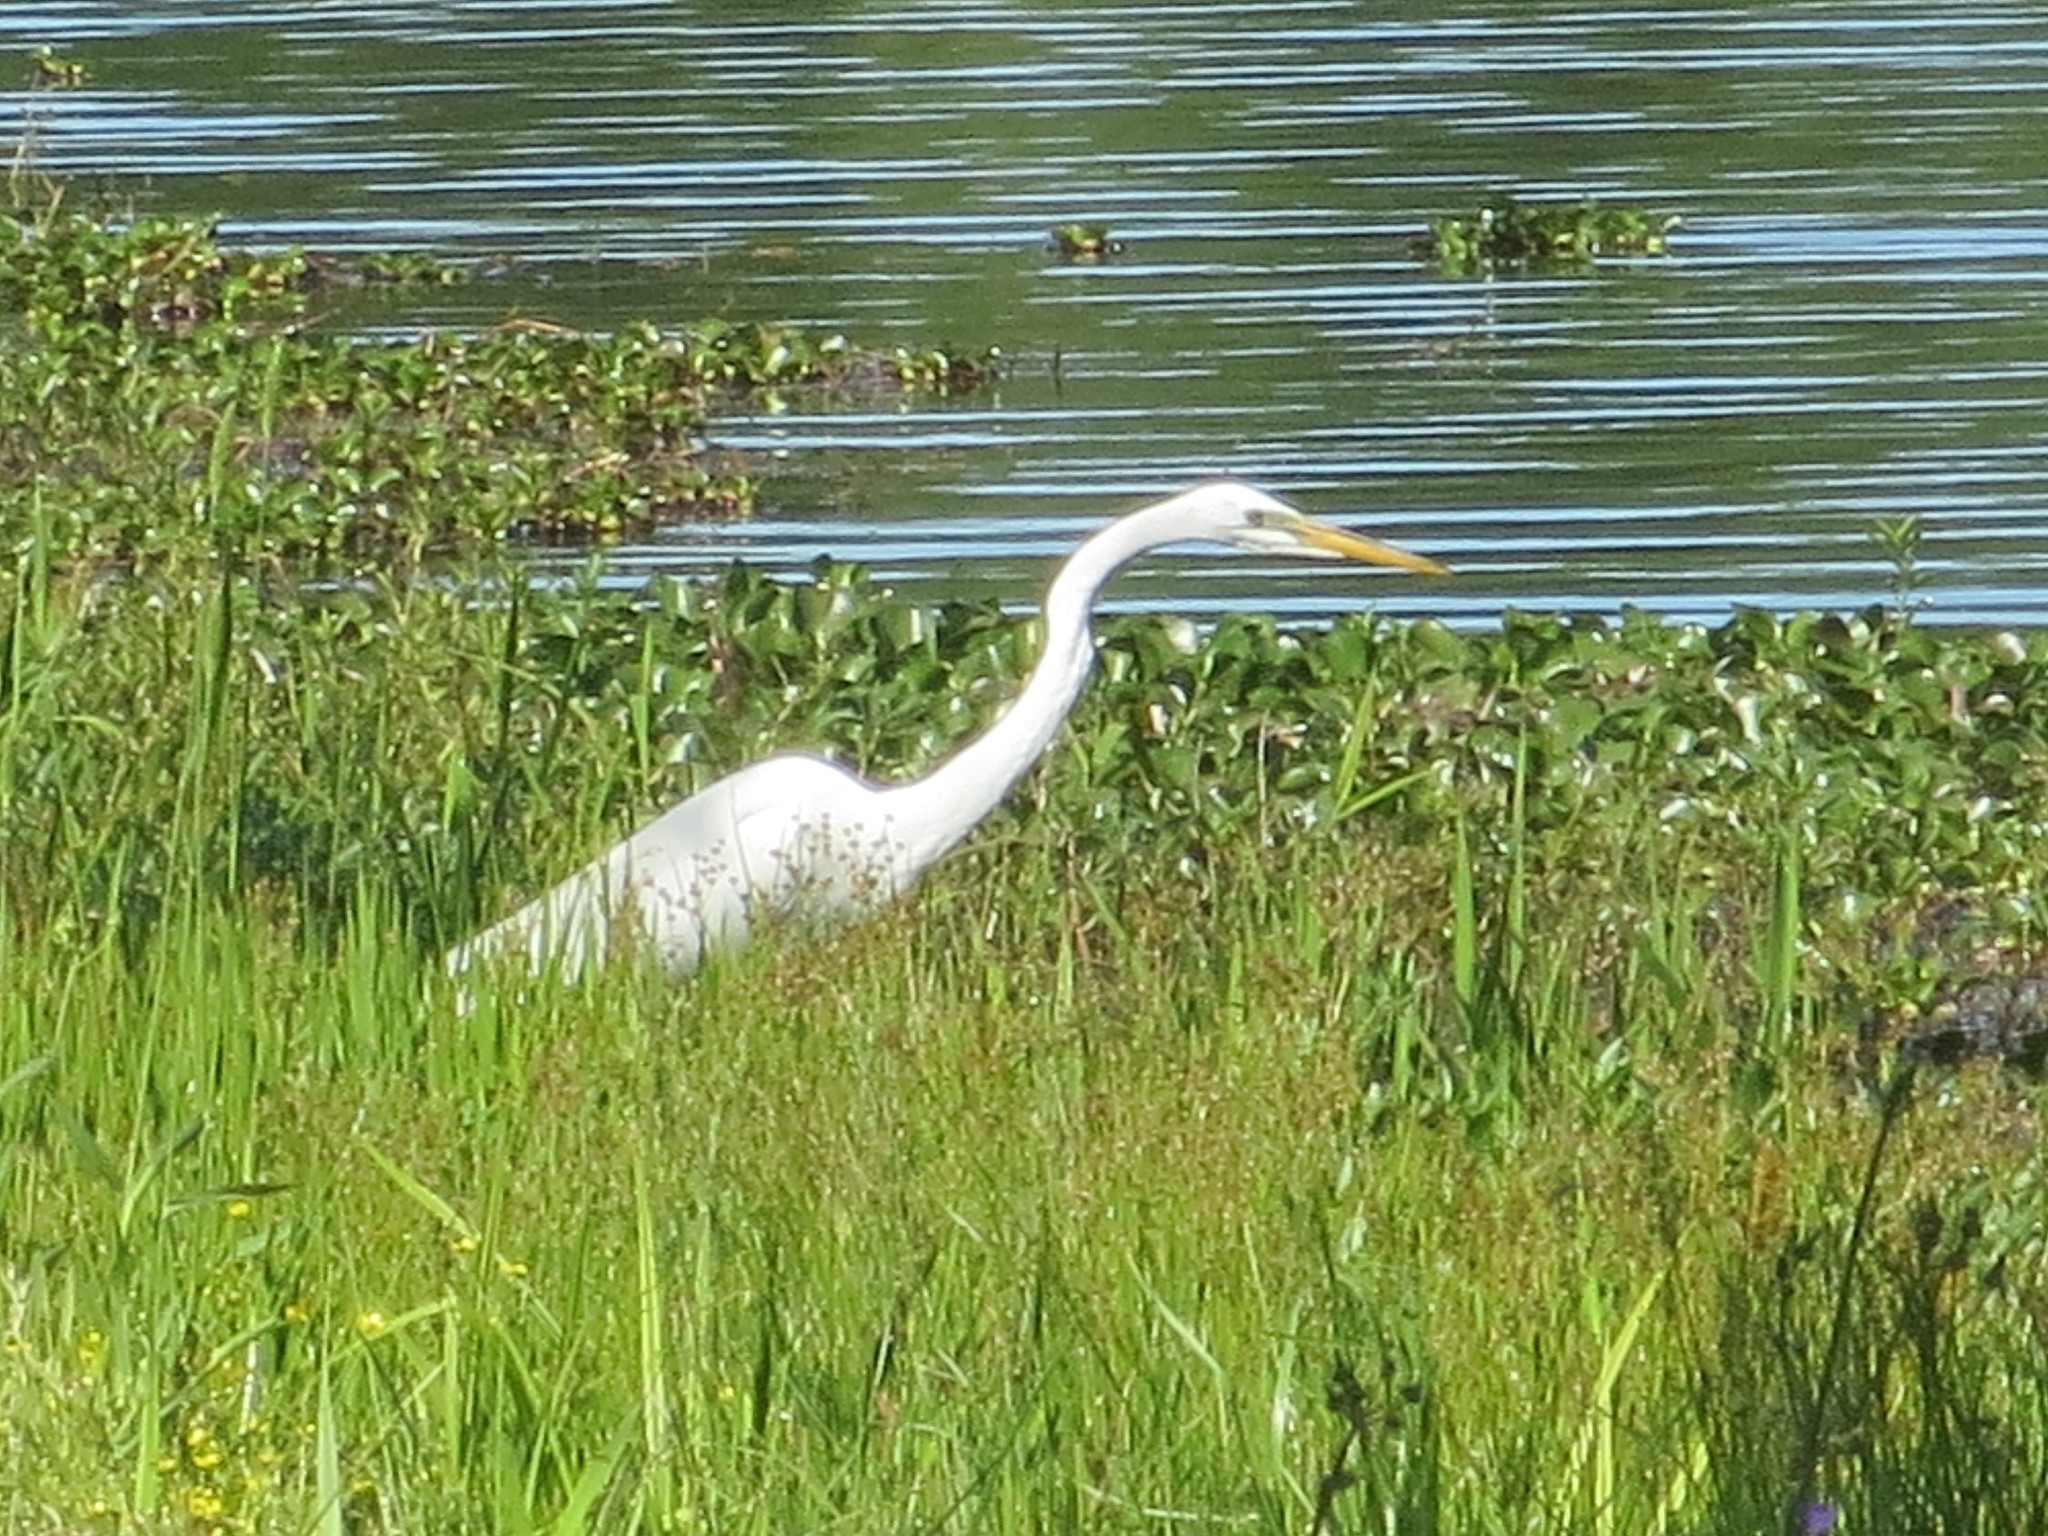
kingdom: Animalia
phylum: Chordata
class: Aves
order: Pelecaniformes
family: Ardeidae
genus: Ardea
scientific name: Ardea alba
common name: Great egret
